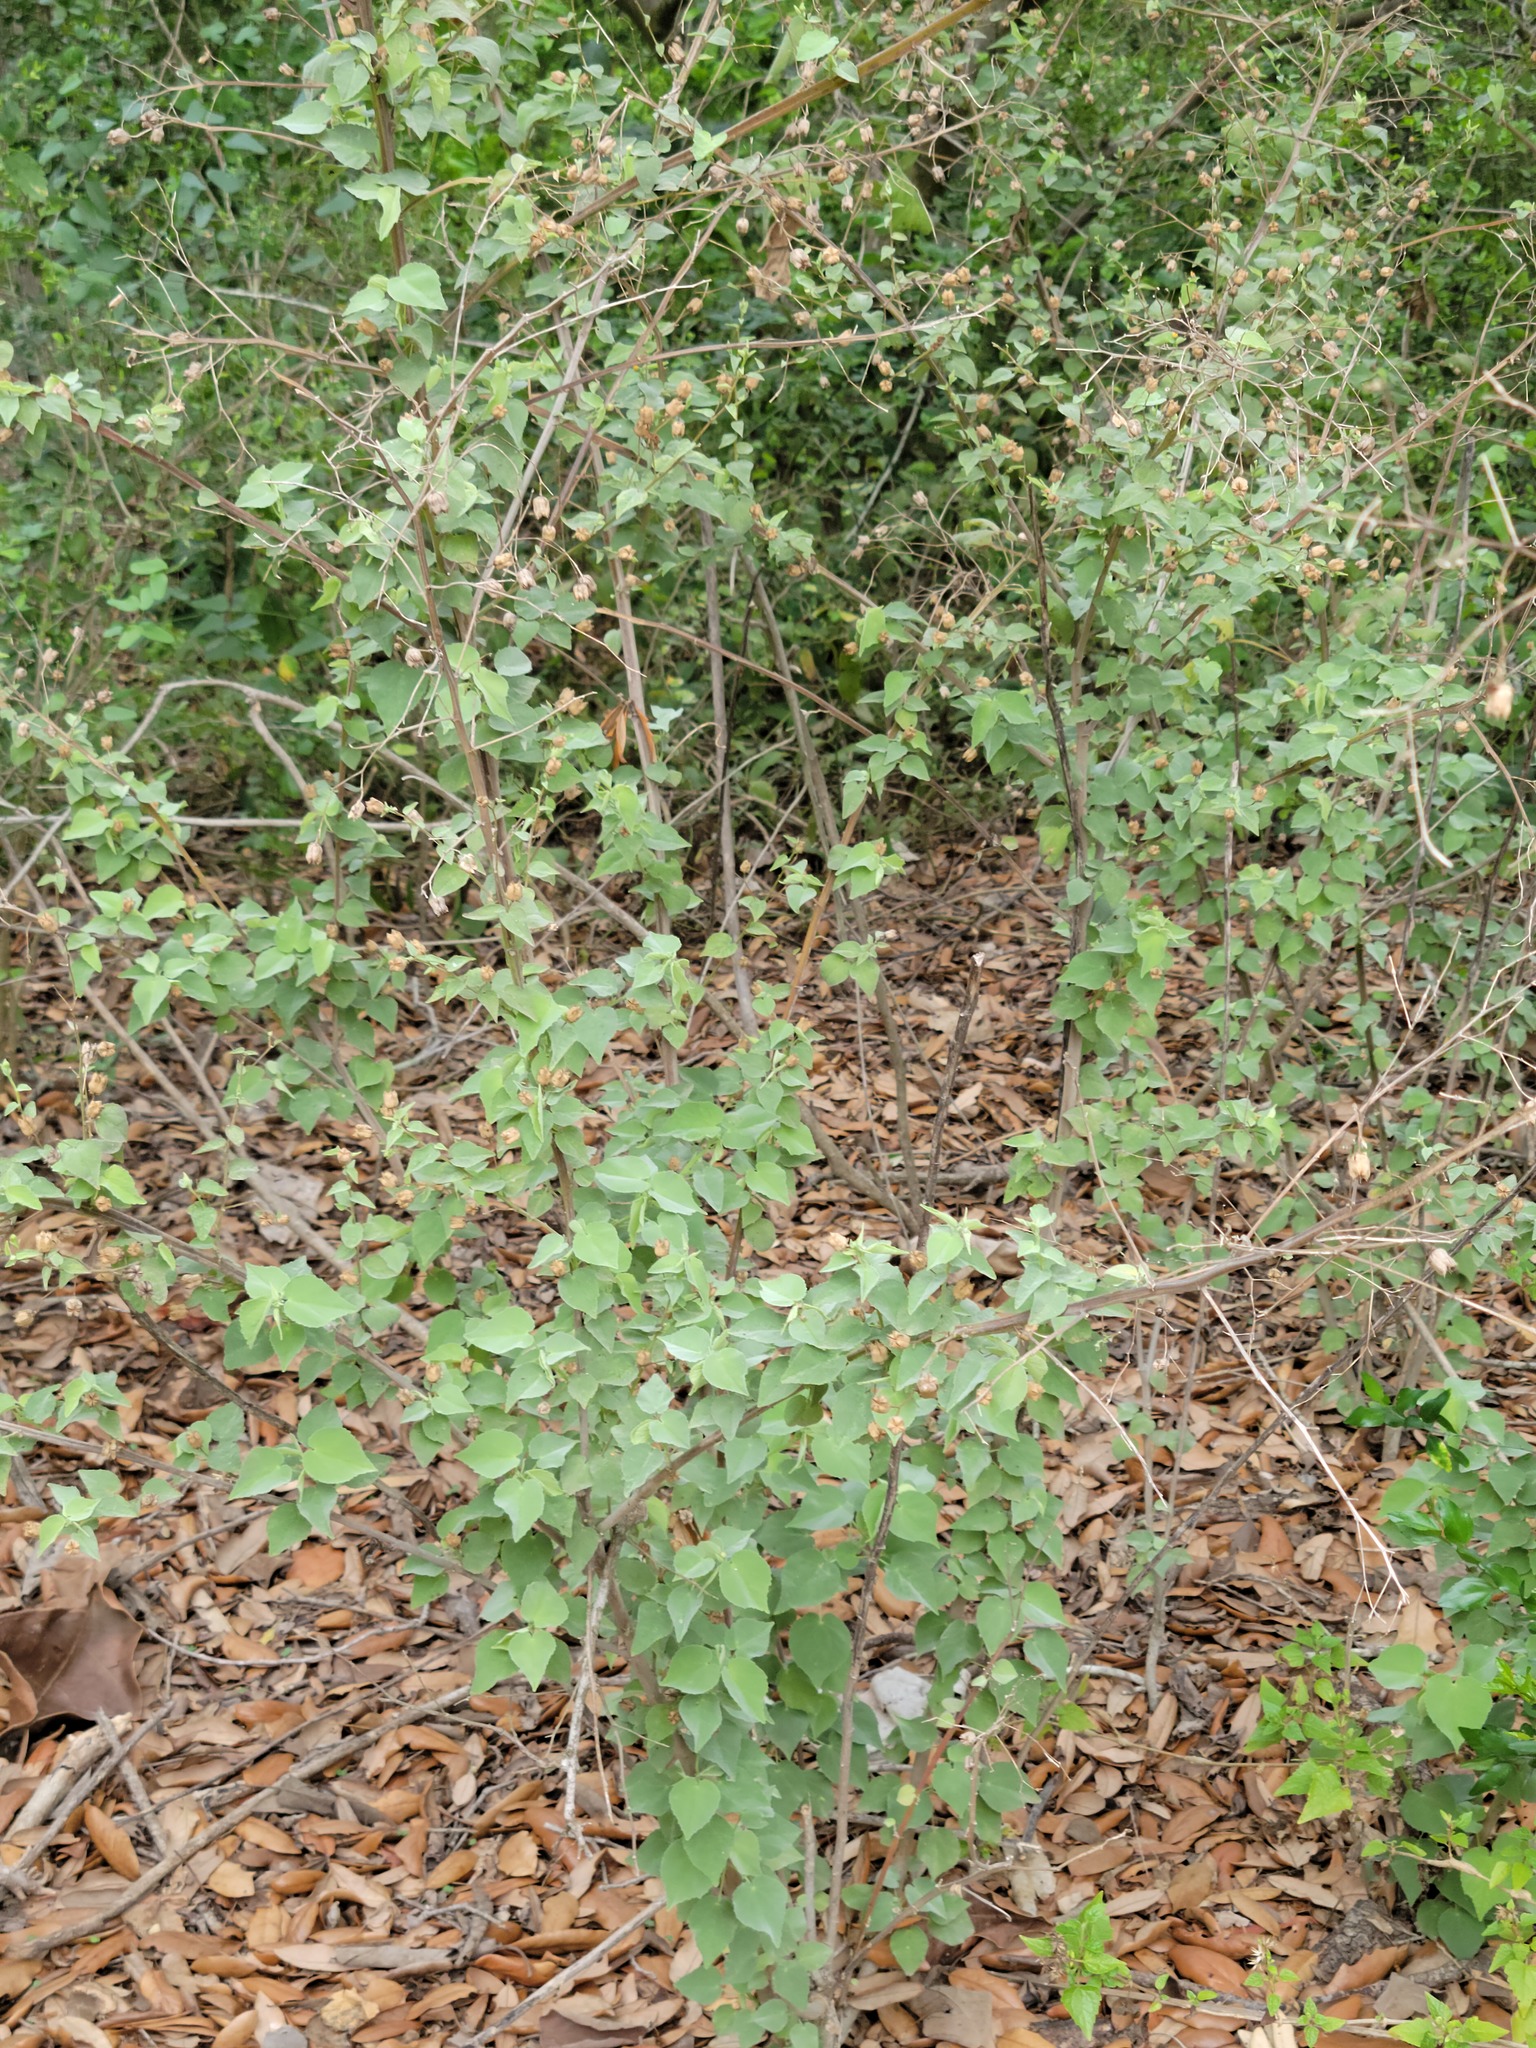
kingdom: Plantae
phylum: Tracheophyta
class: Magnoliopsida
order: Malvales
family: Malvaceae
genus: Abutilon
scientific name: Abutilon trisulcatum
